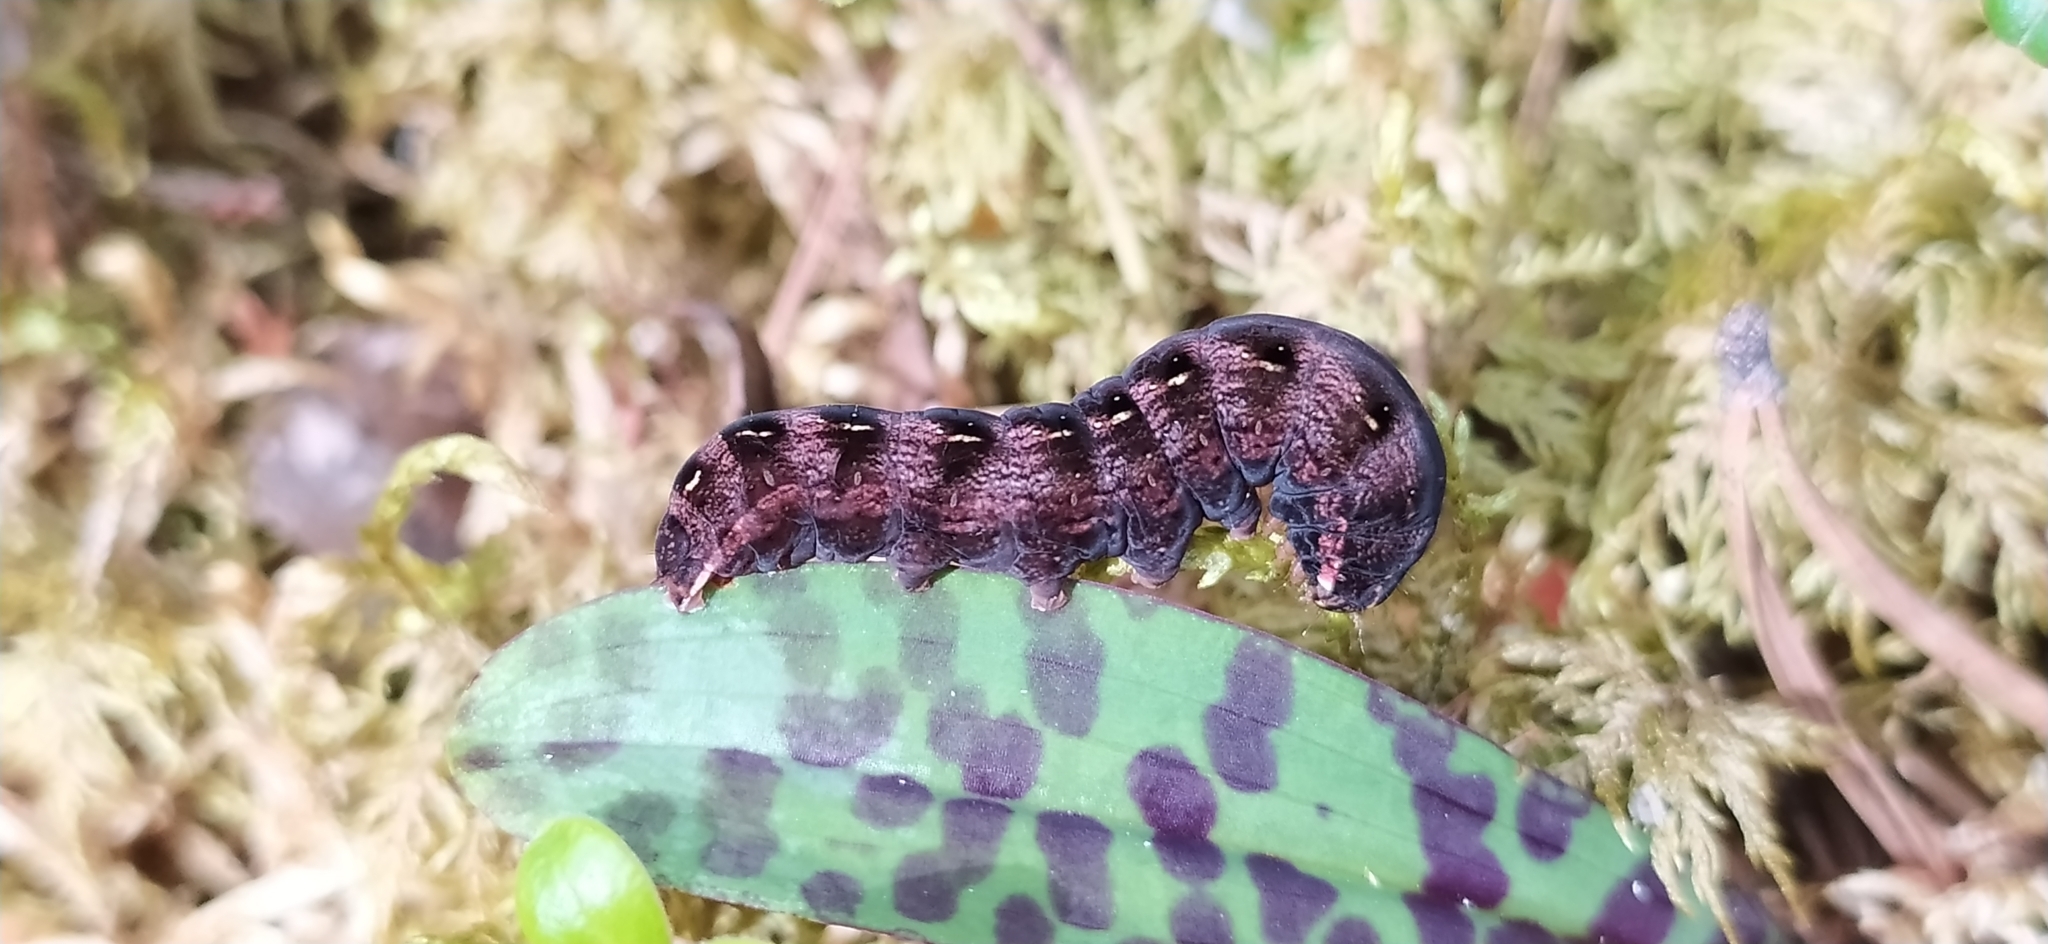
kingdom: Animalia
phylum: Arthropoda
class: Insecta
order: Lepidoptera
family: Noctuidae
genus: Cerastis
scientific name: Cerastis rubricosa
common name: Red chestnut
